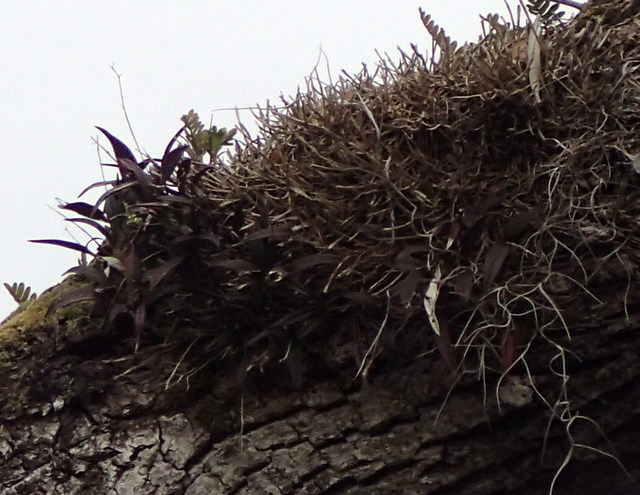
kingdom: Plantae
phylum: Tracheophyta
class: Liliopsida
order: Asparagales
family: Orchidaceae
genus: Epidendrum
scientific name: Epidendrum conopseum
